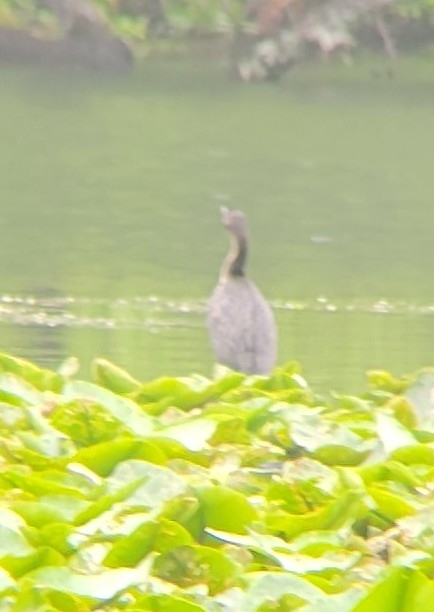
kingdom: Animalia
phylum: Chordata
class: Aves
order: Suliformes
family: Phalacrocoracidae
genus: Phalacrocorax
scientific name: Phalacrocorax auritus
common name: Double-crested cormorant
